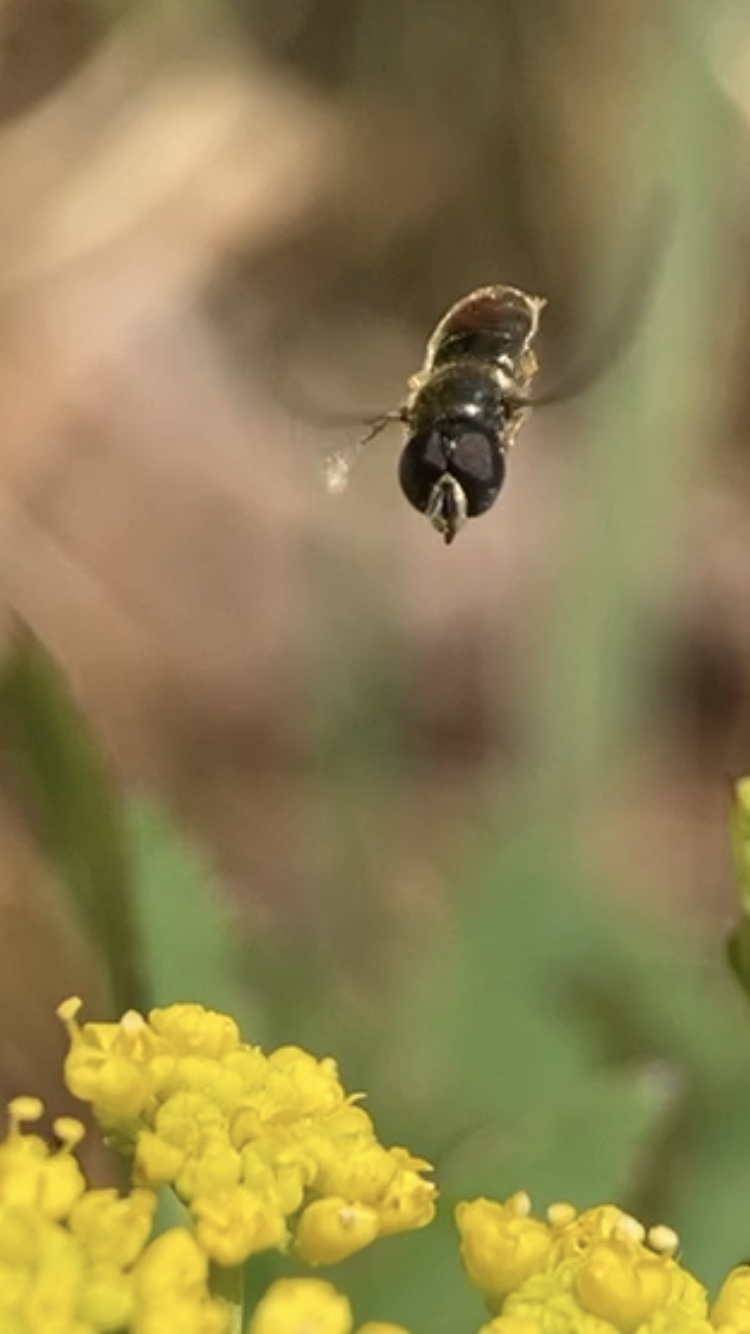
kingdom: Animalia
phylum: Arthropoda
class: Insecta
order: Diptera
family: Syrphidae
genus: Paragus
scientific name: Paragus haemorrhous
